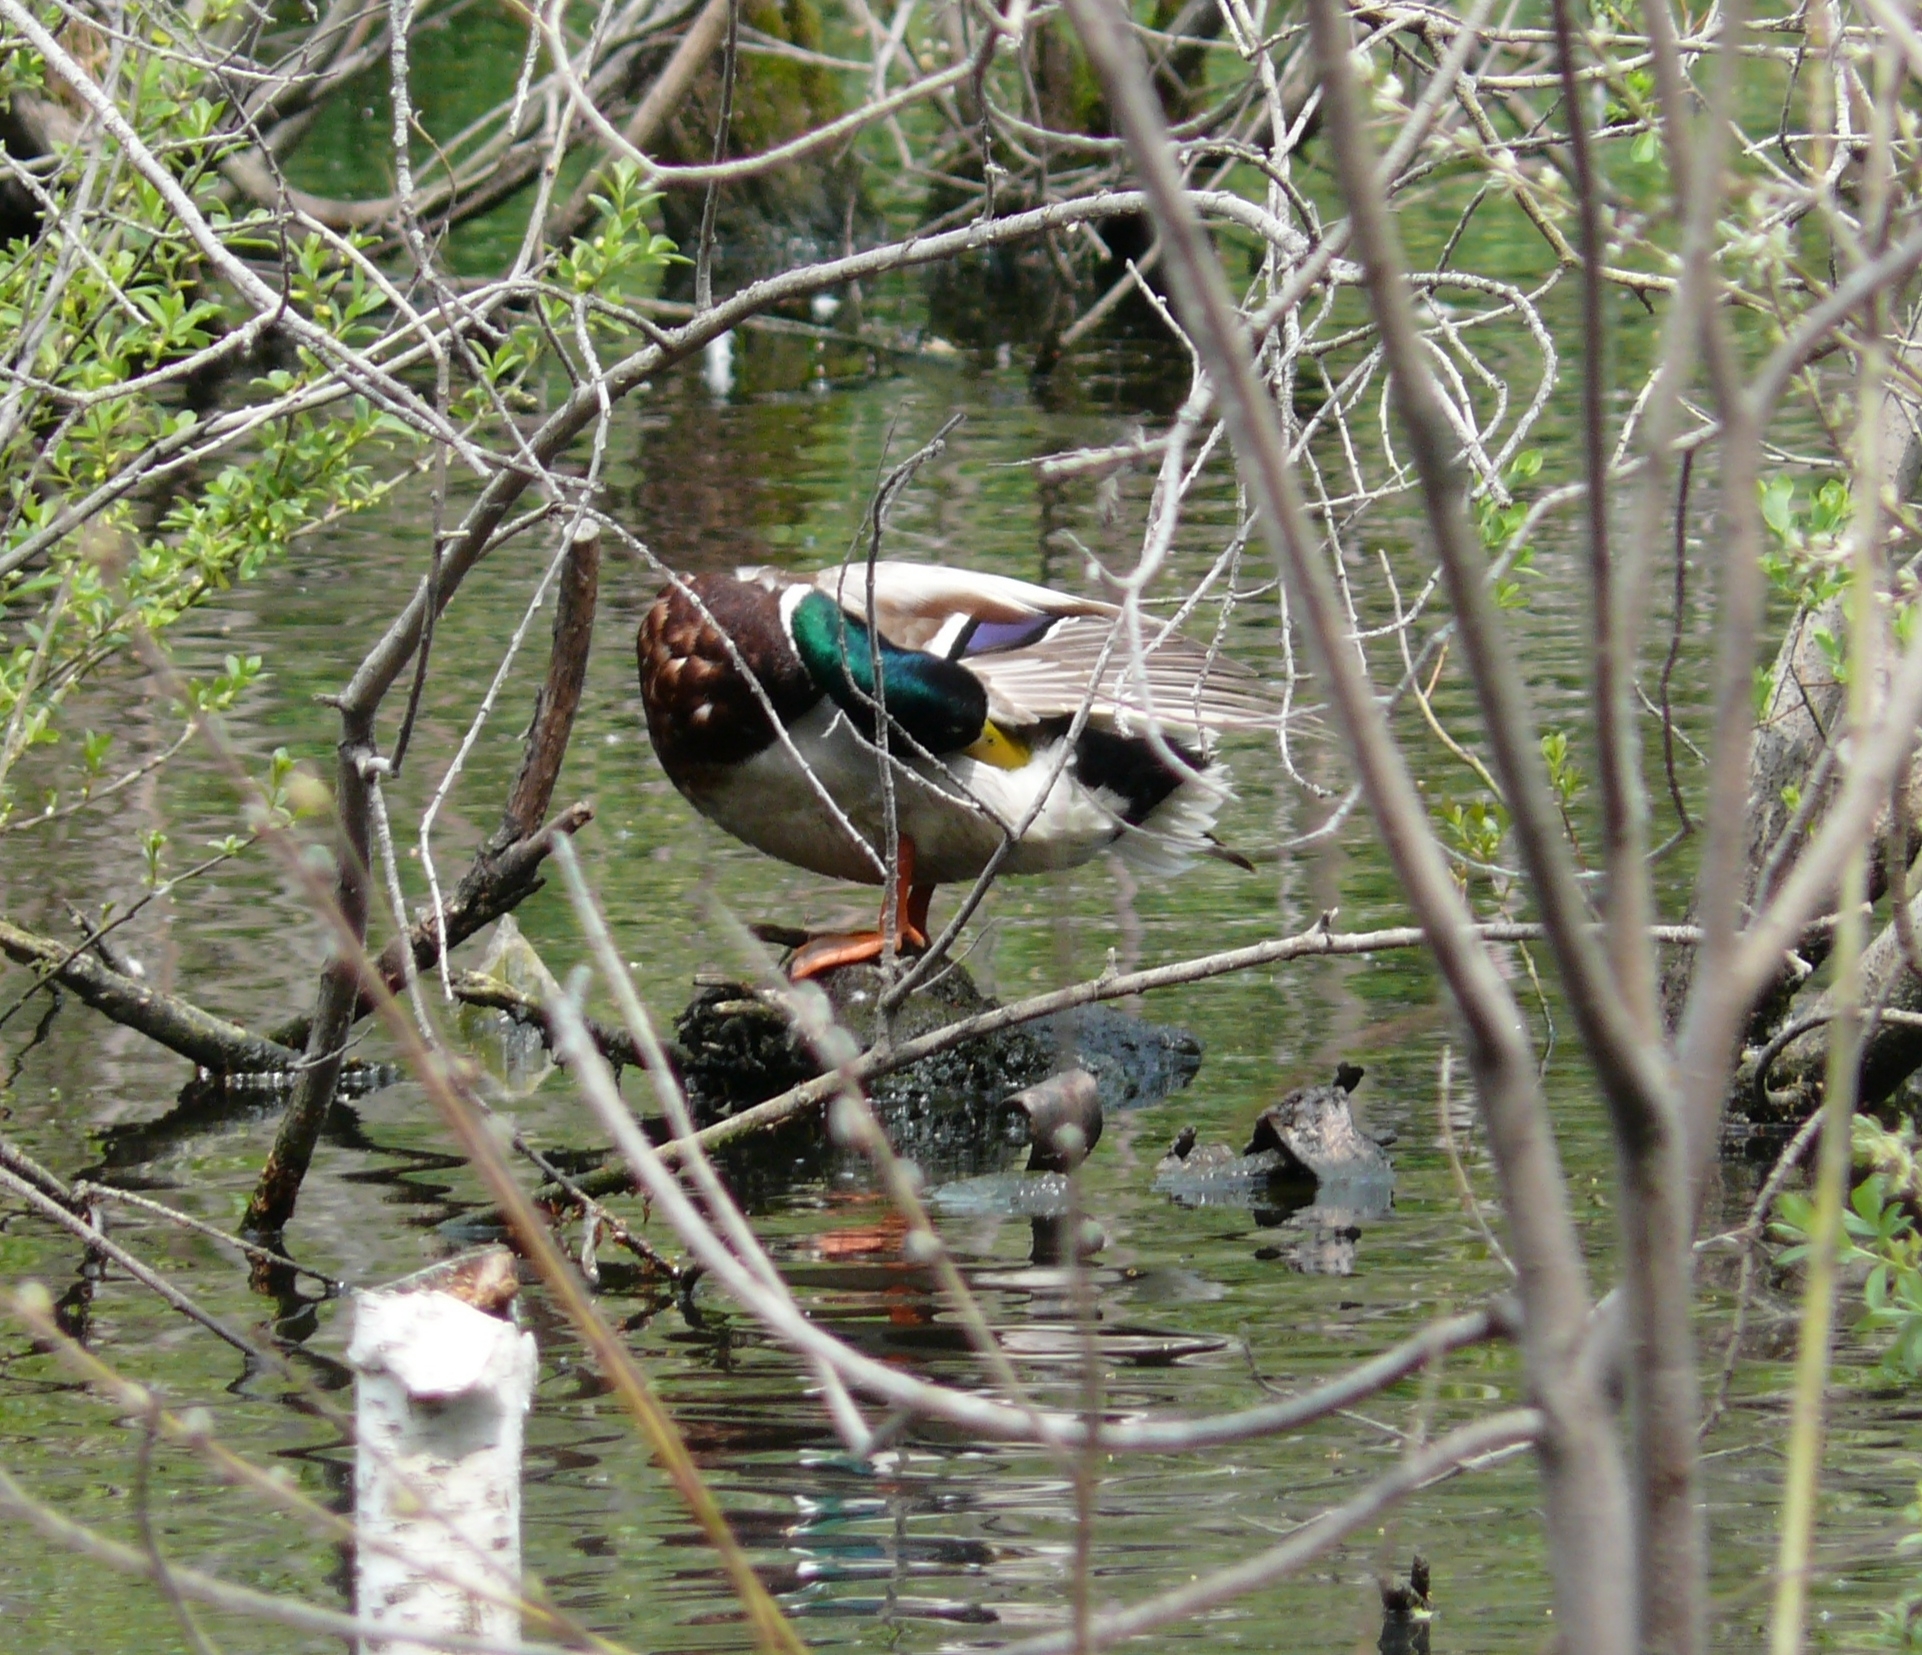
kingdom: Animalia
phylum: Chordata
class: Aves
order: Anseriformes
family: Anatidae
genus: Anas
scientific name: Anas platyrhynchos
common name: Mallard
